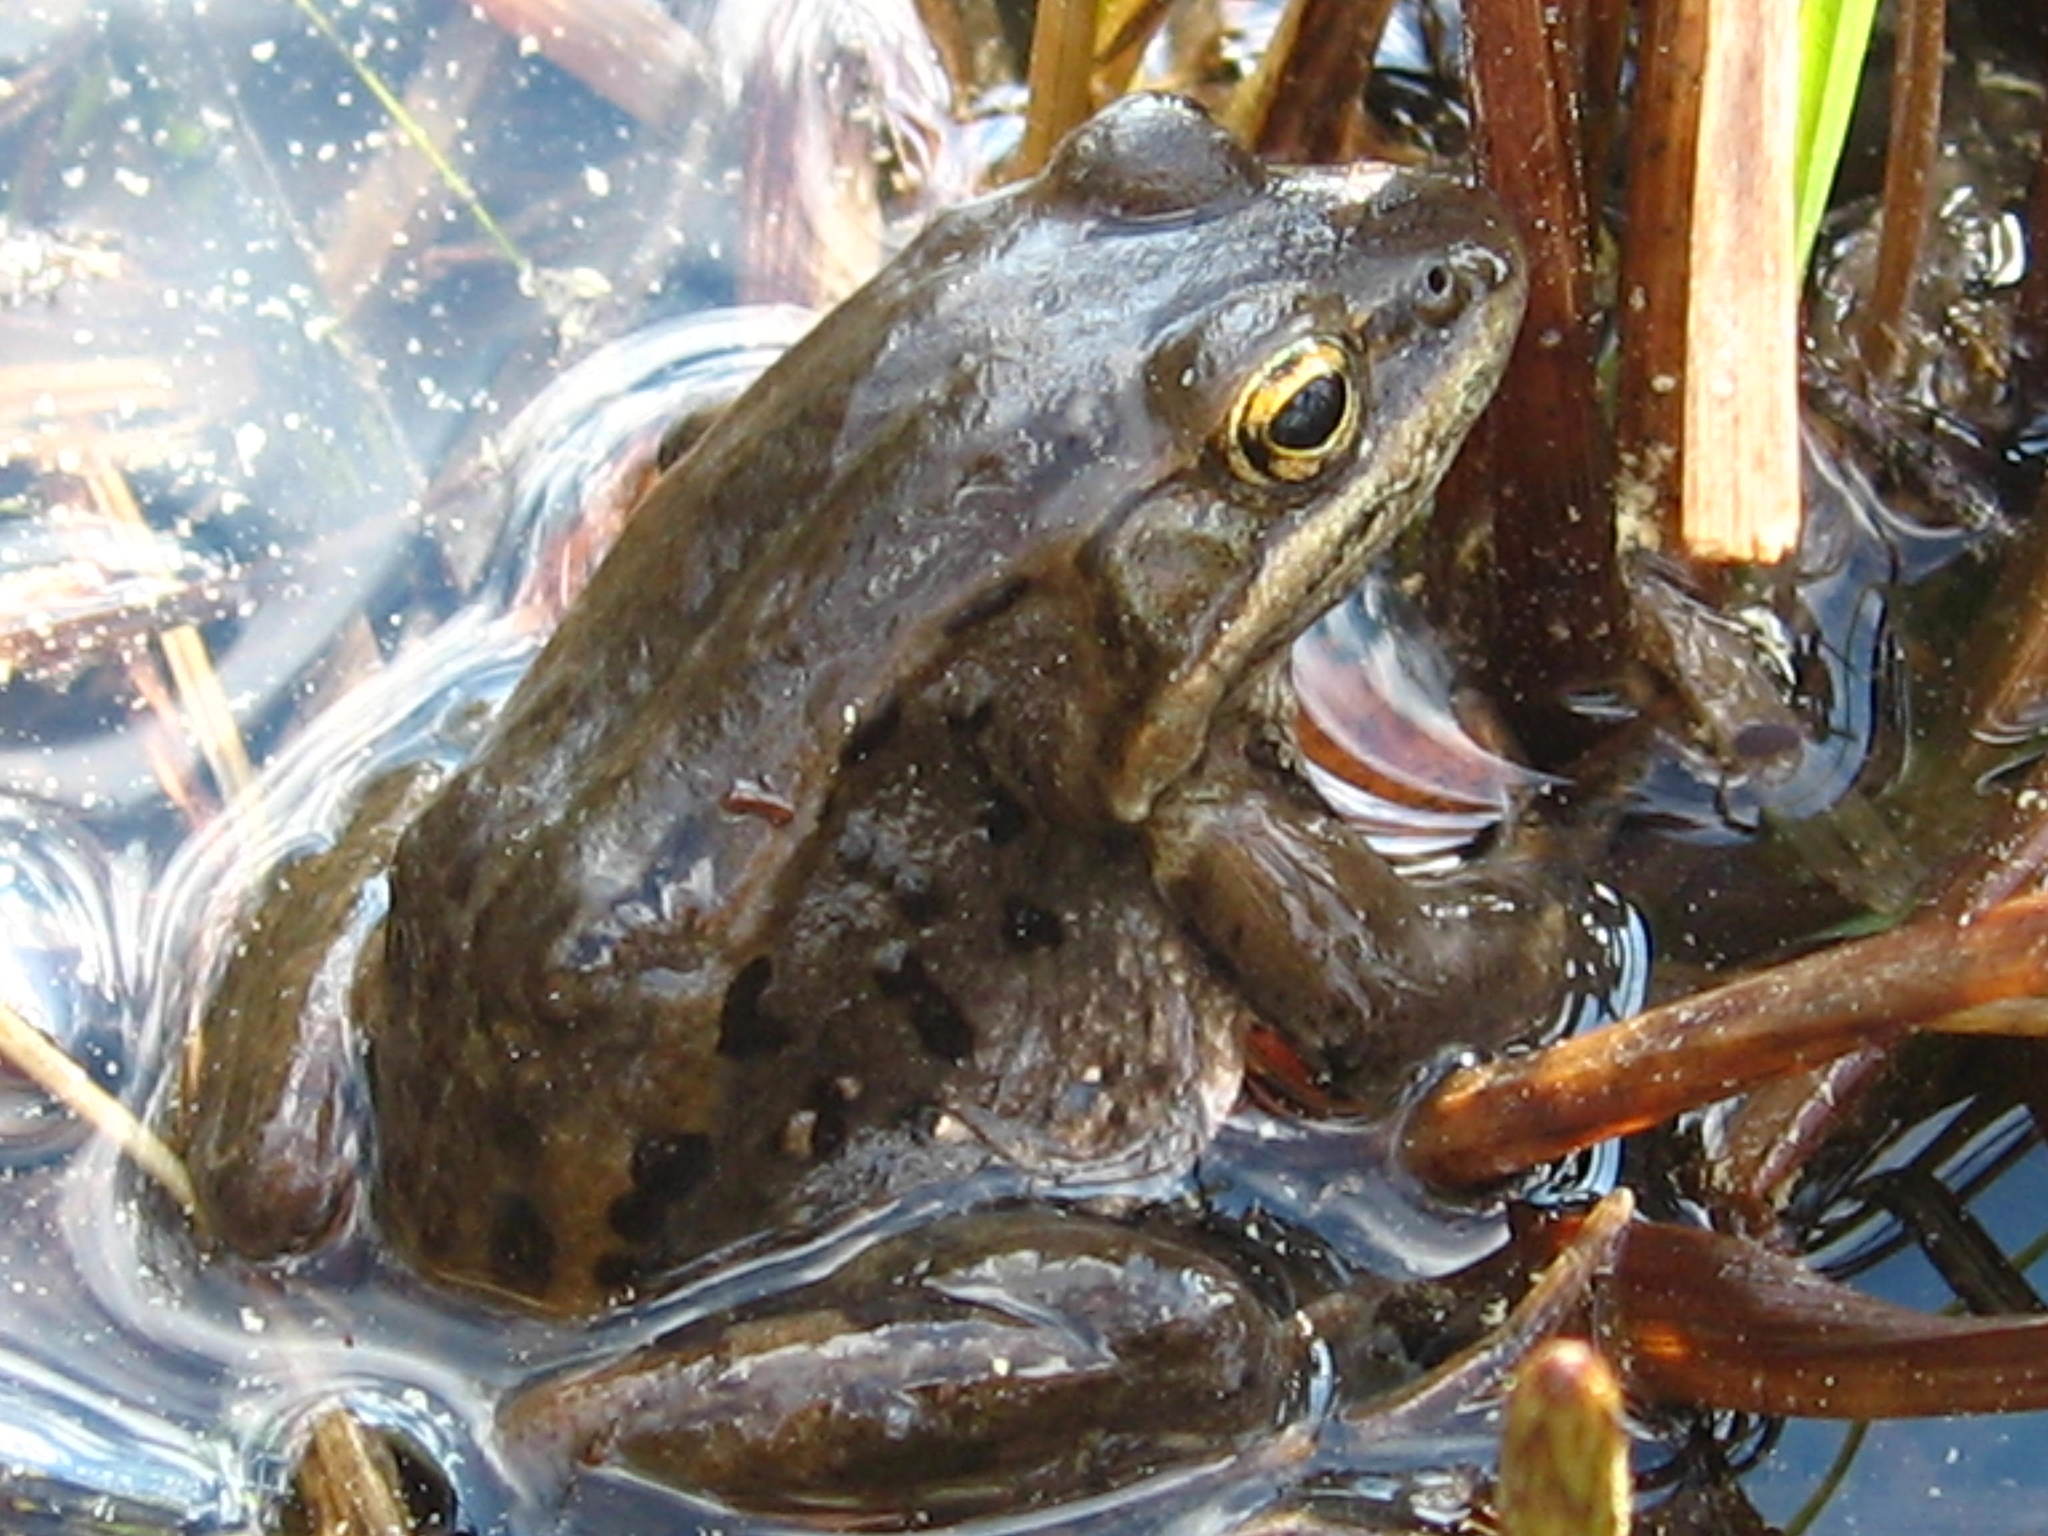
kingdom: Animalia
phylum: Chordata
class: Amphibia
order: Anura
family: Ranidae
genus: Lithobates
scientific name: Lithobates sylvaticus
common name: Wood frog
